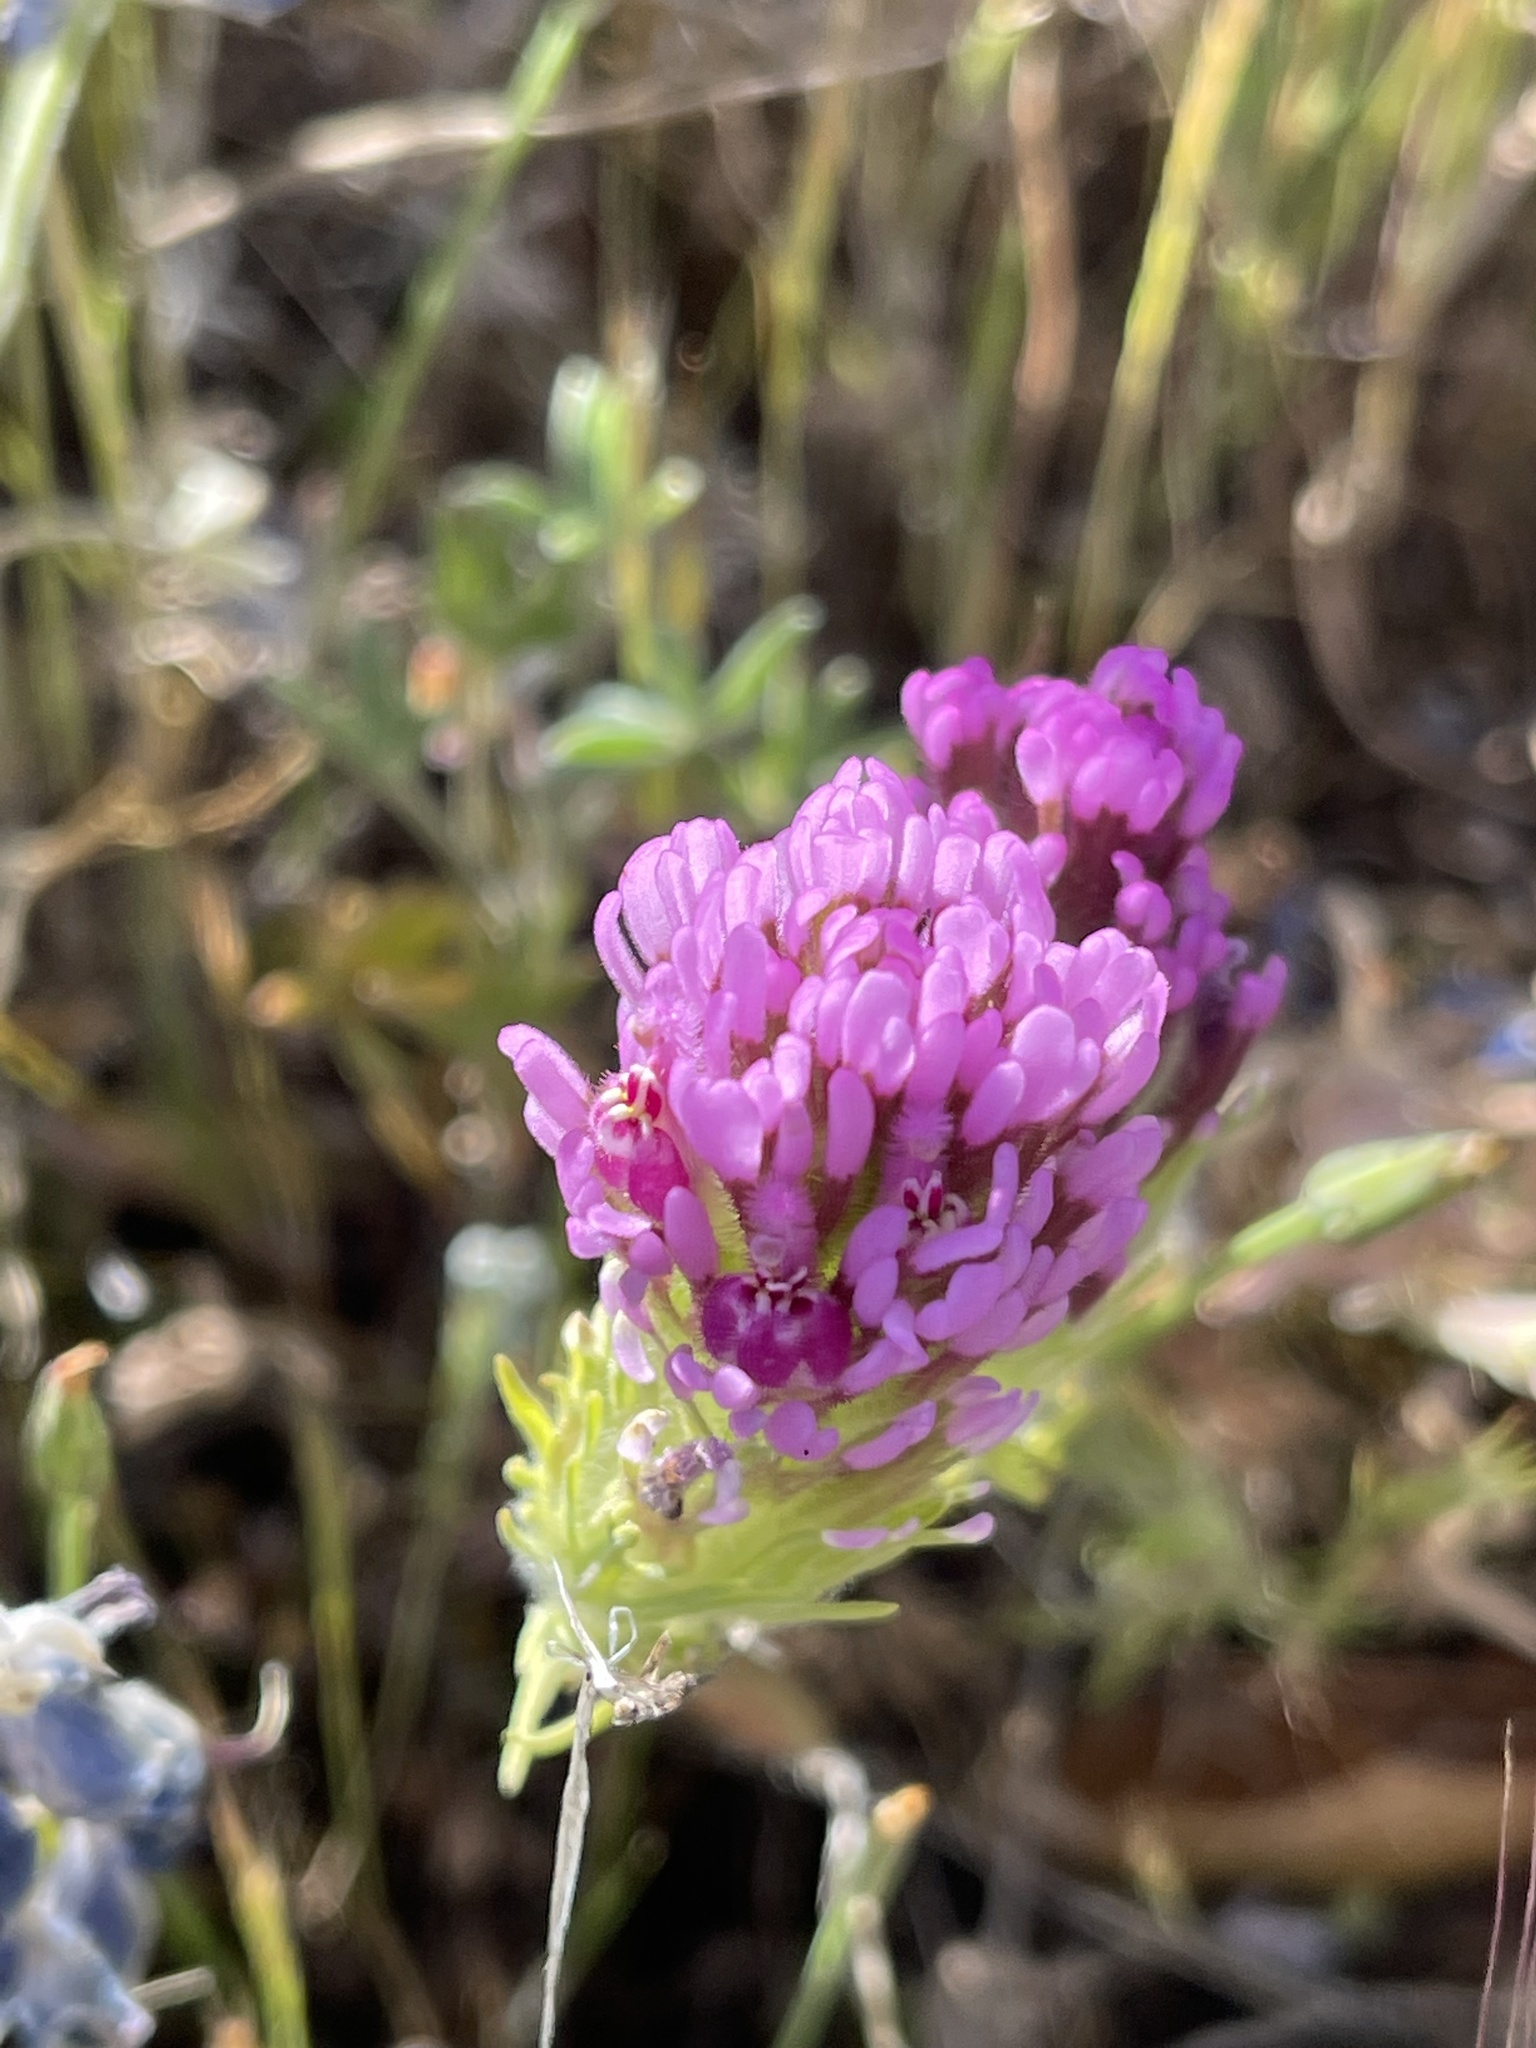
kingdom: Plantae
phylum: Tracheophyta
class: Magnoliopsida
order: Lamiales
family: Orobanchaceae
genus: Castilleja
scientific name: Castilleja exserta
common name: Purple owl-clover
